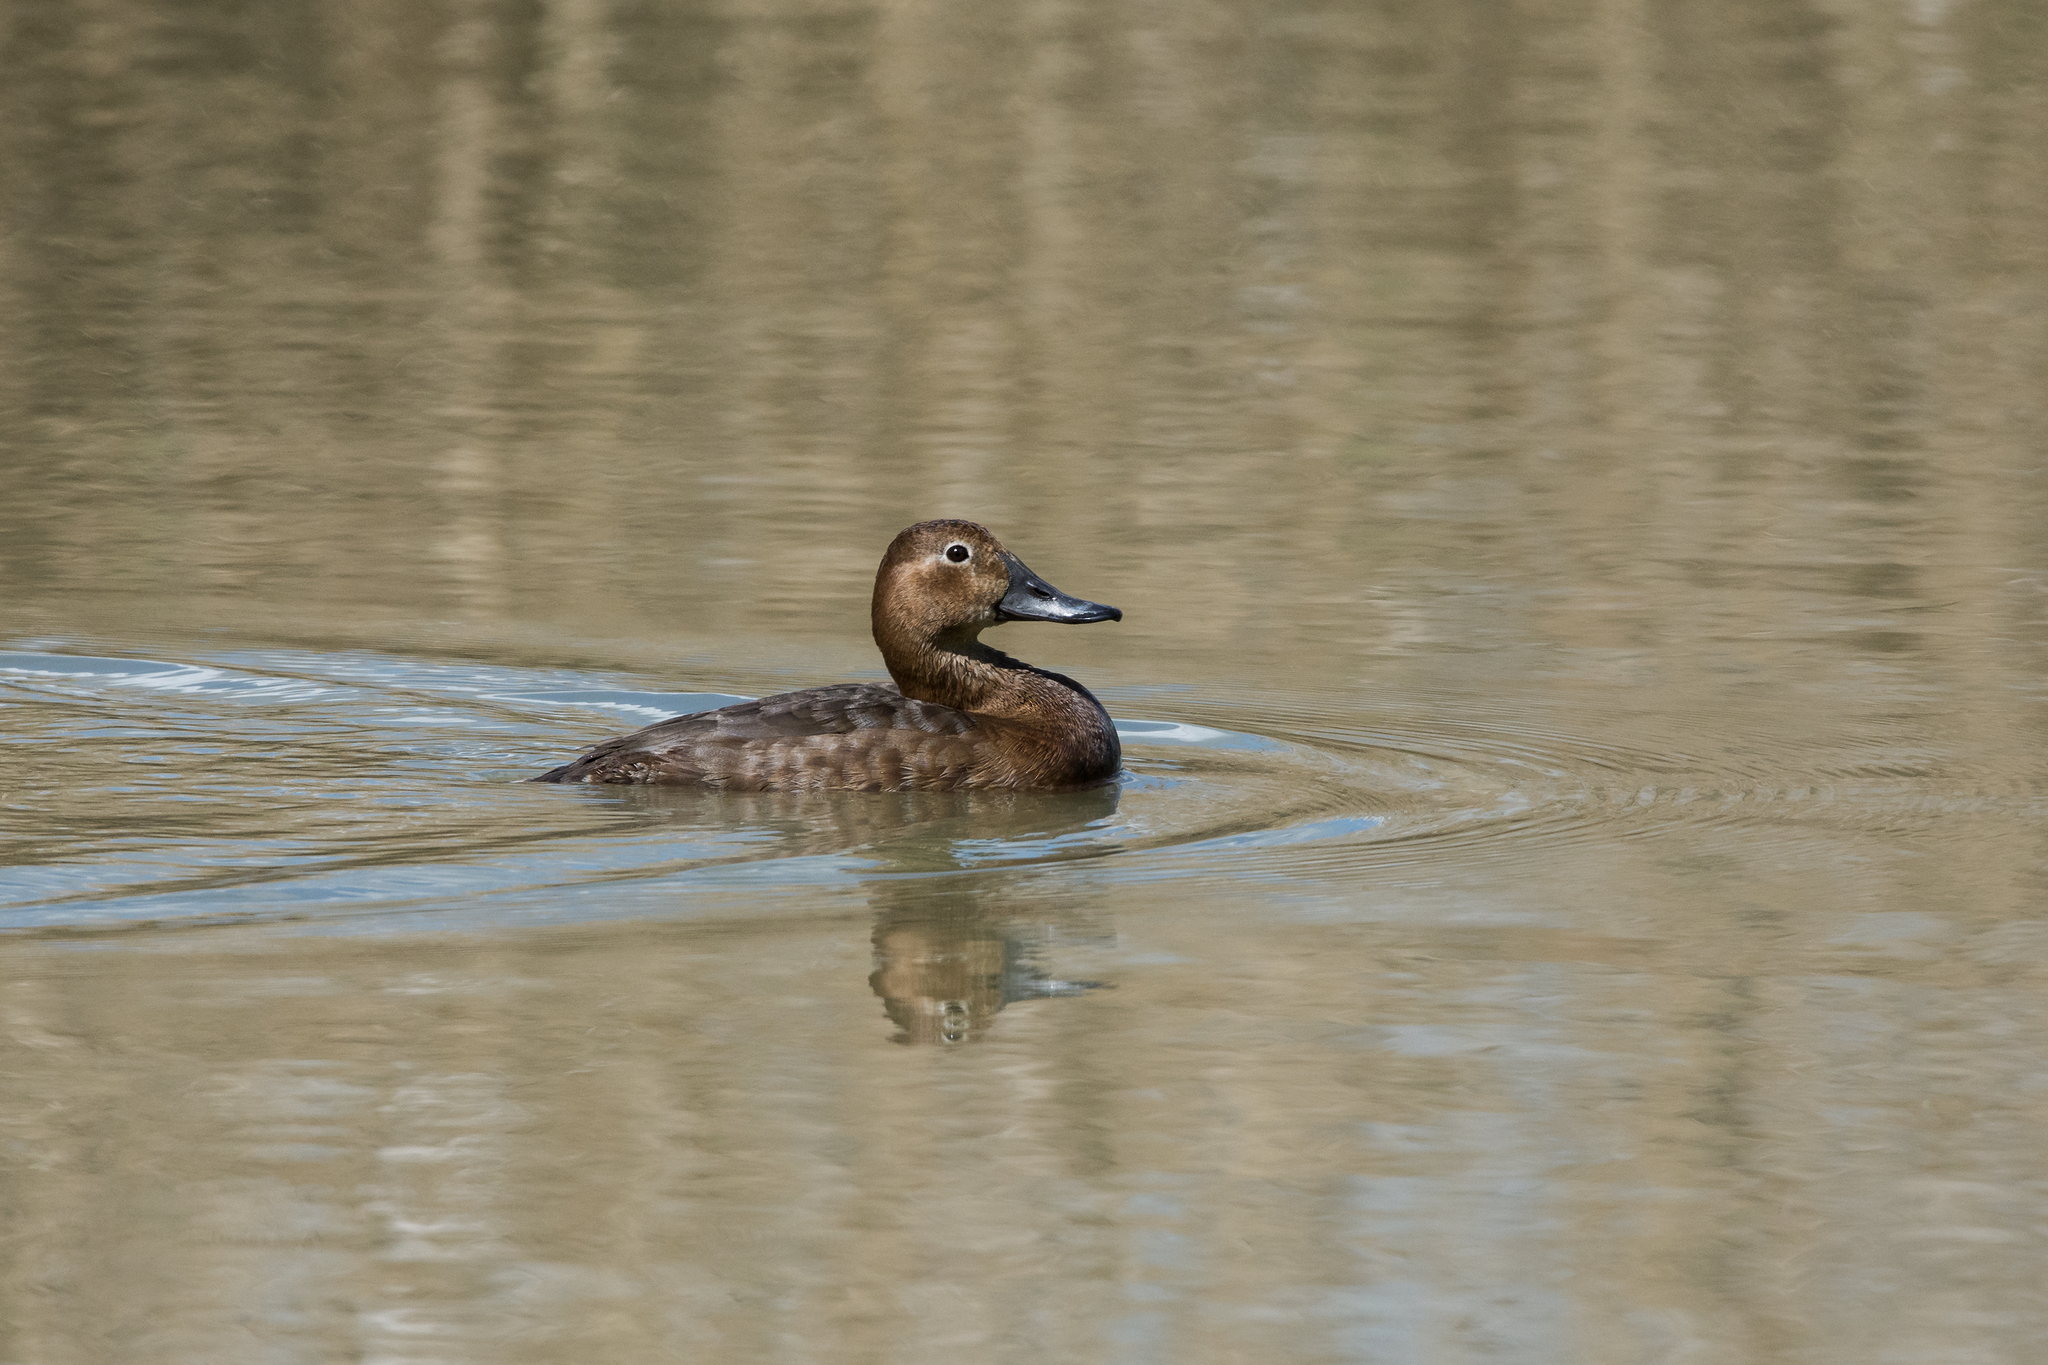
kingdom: Animalia
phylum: Chordata
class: Aves
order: Anseriformes
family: Anatidae
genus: Aythya
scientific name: Aythya ferina
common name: Common pochard
